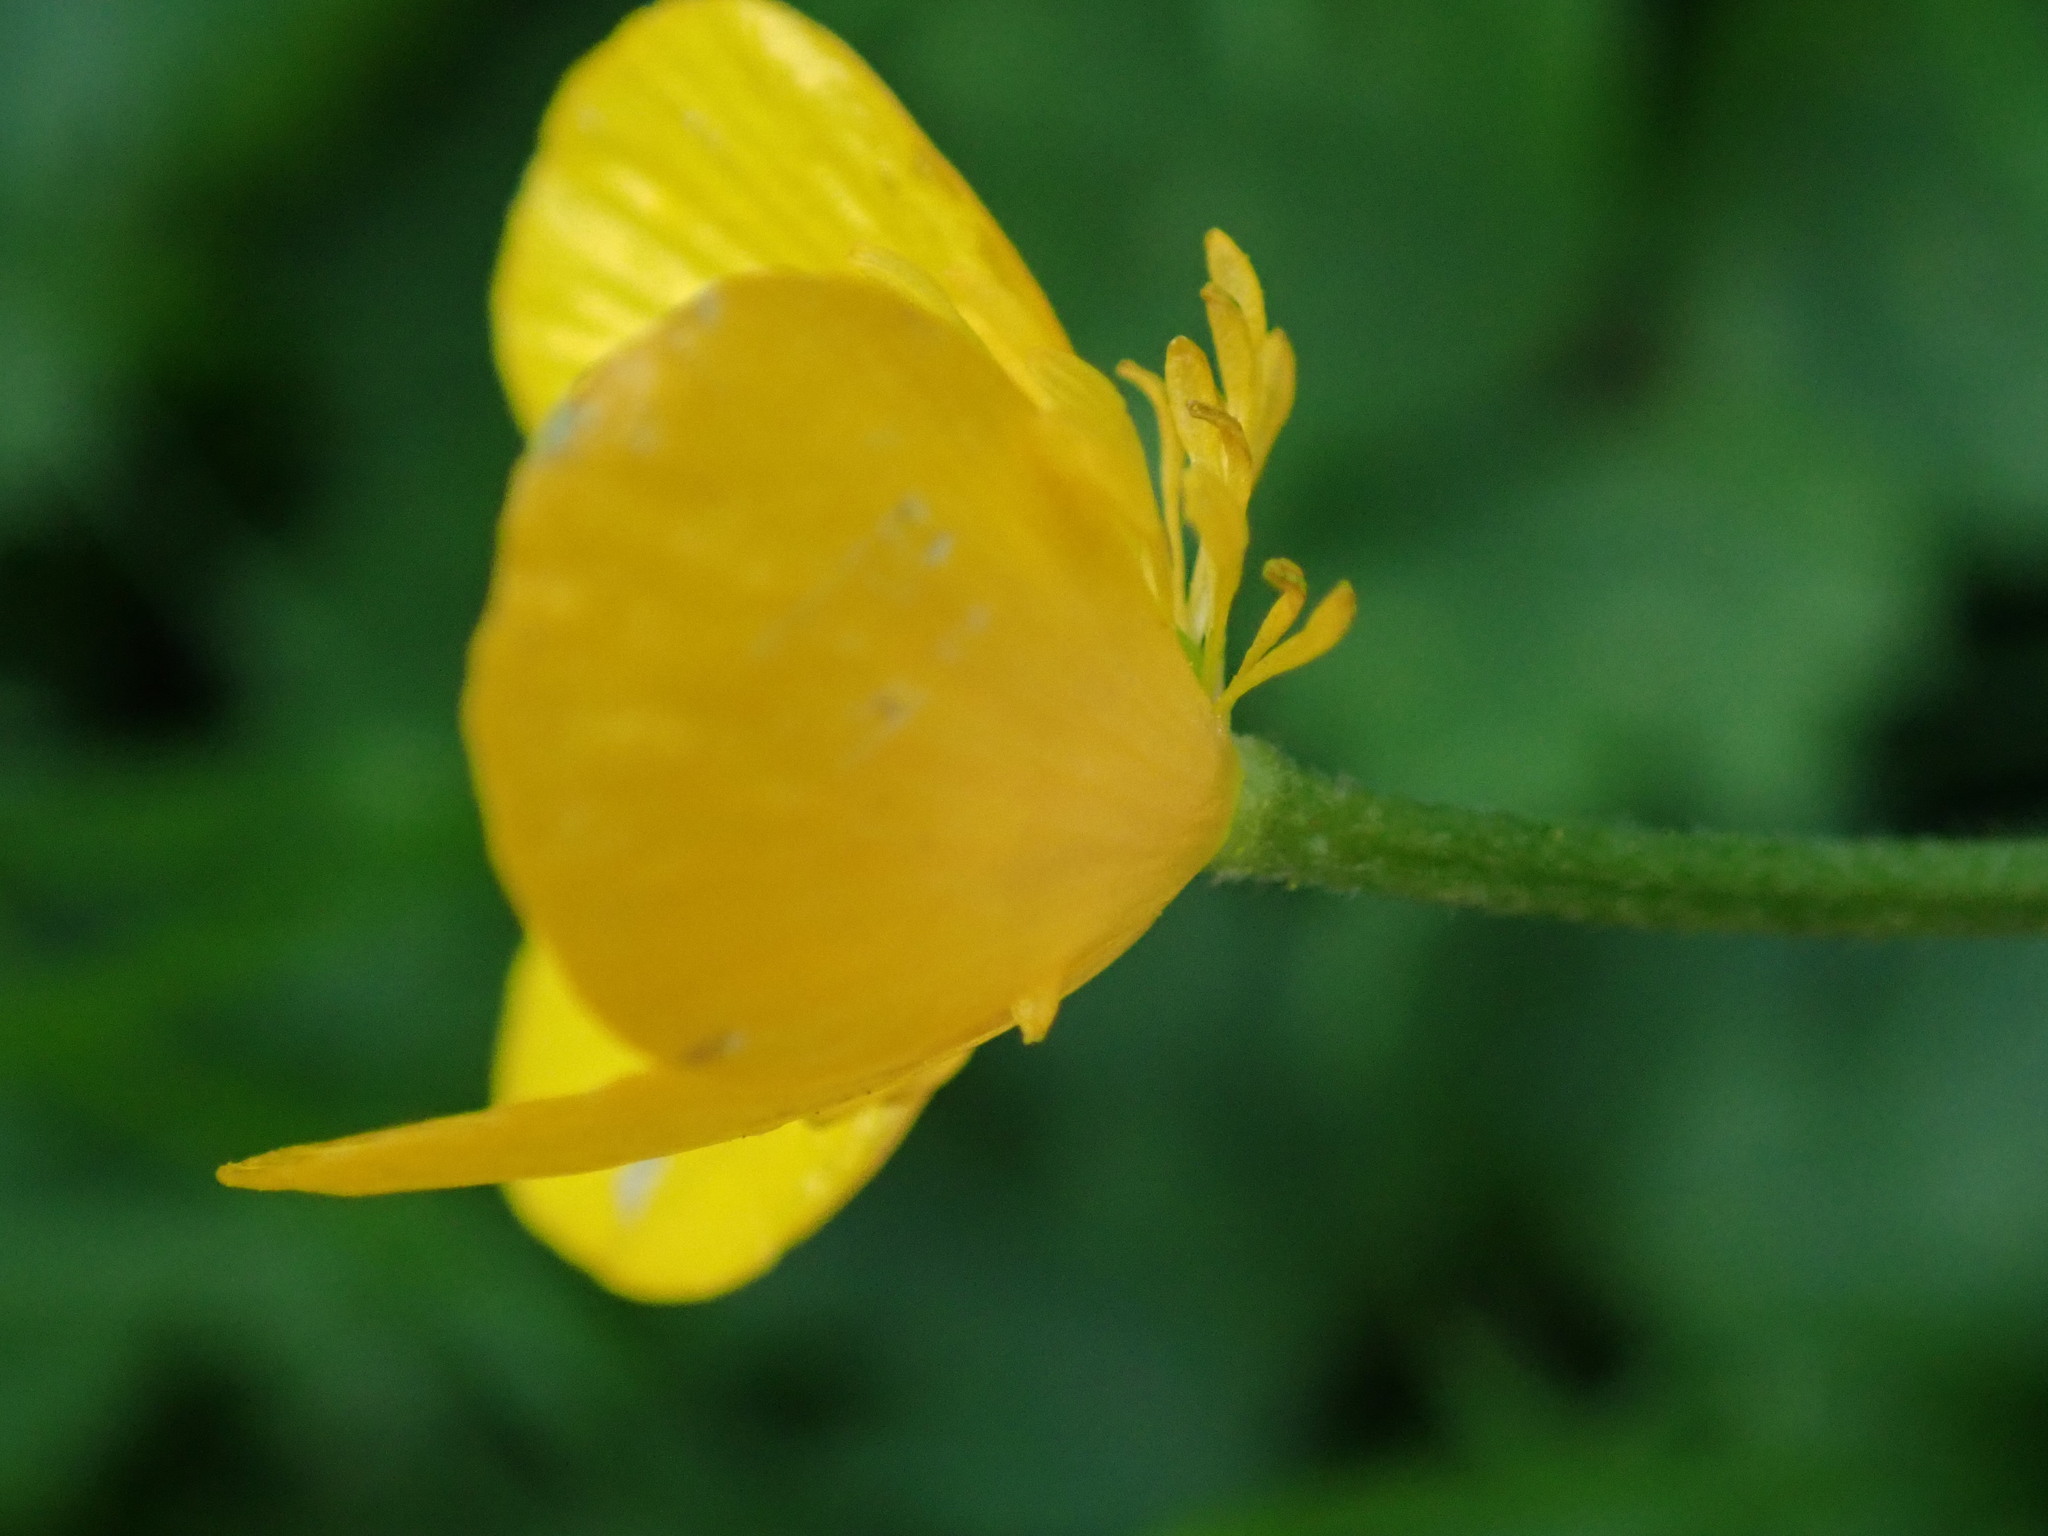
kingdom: Plantae
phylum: Tracheophyta
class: Magnoliopsida
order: Ranunculales
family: Ranunculaceae
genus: Ranunculus
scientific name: Ranunculus repens
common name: Creeping buttercup
